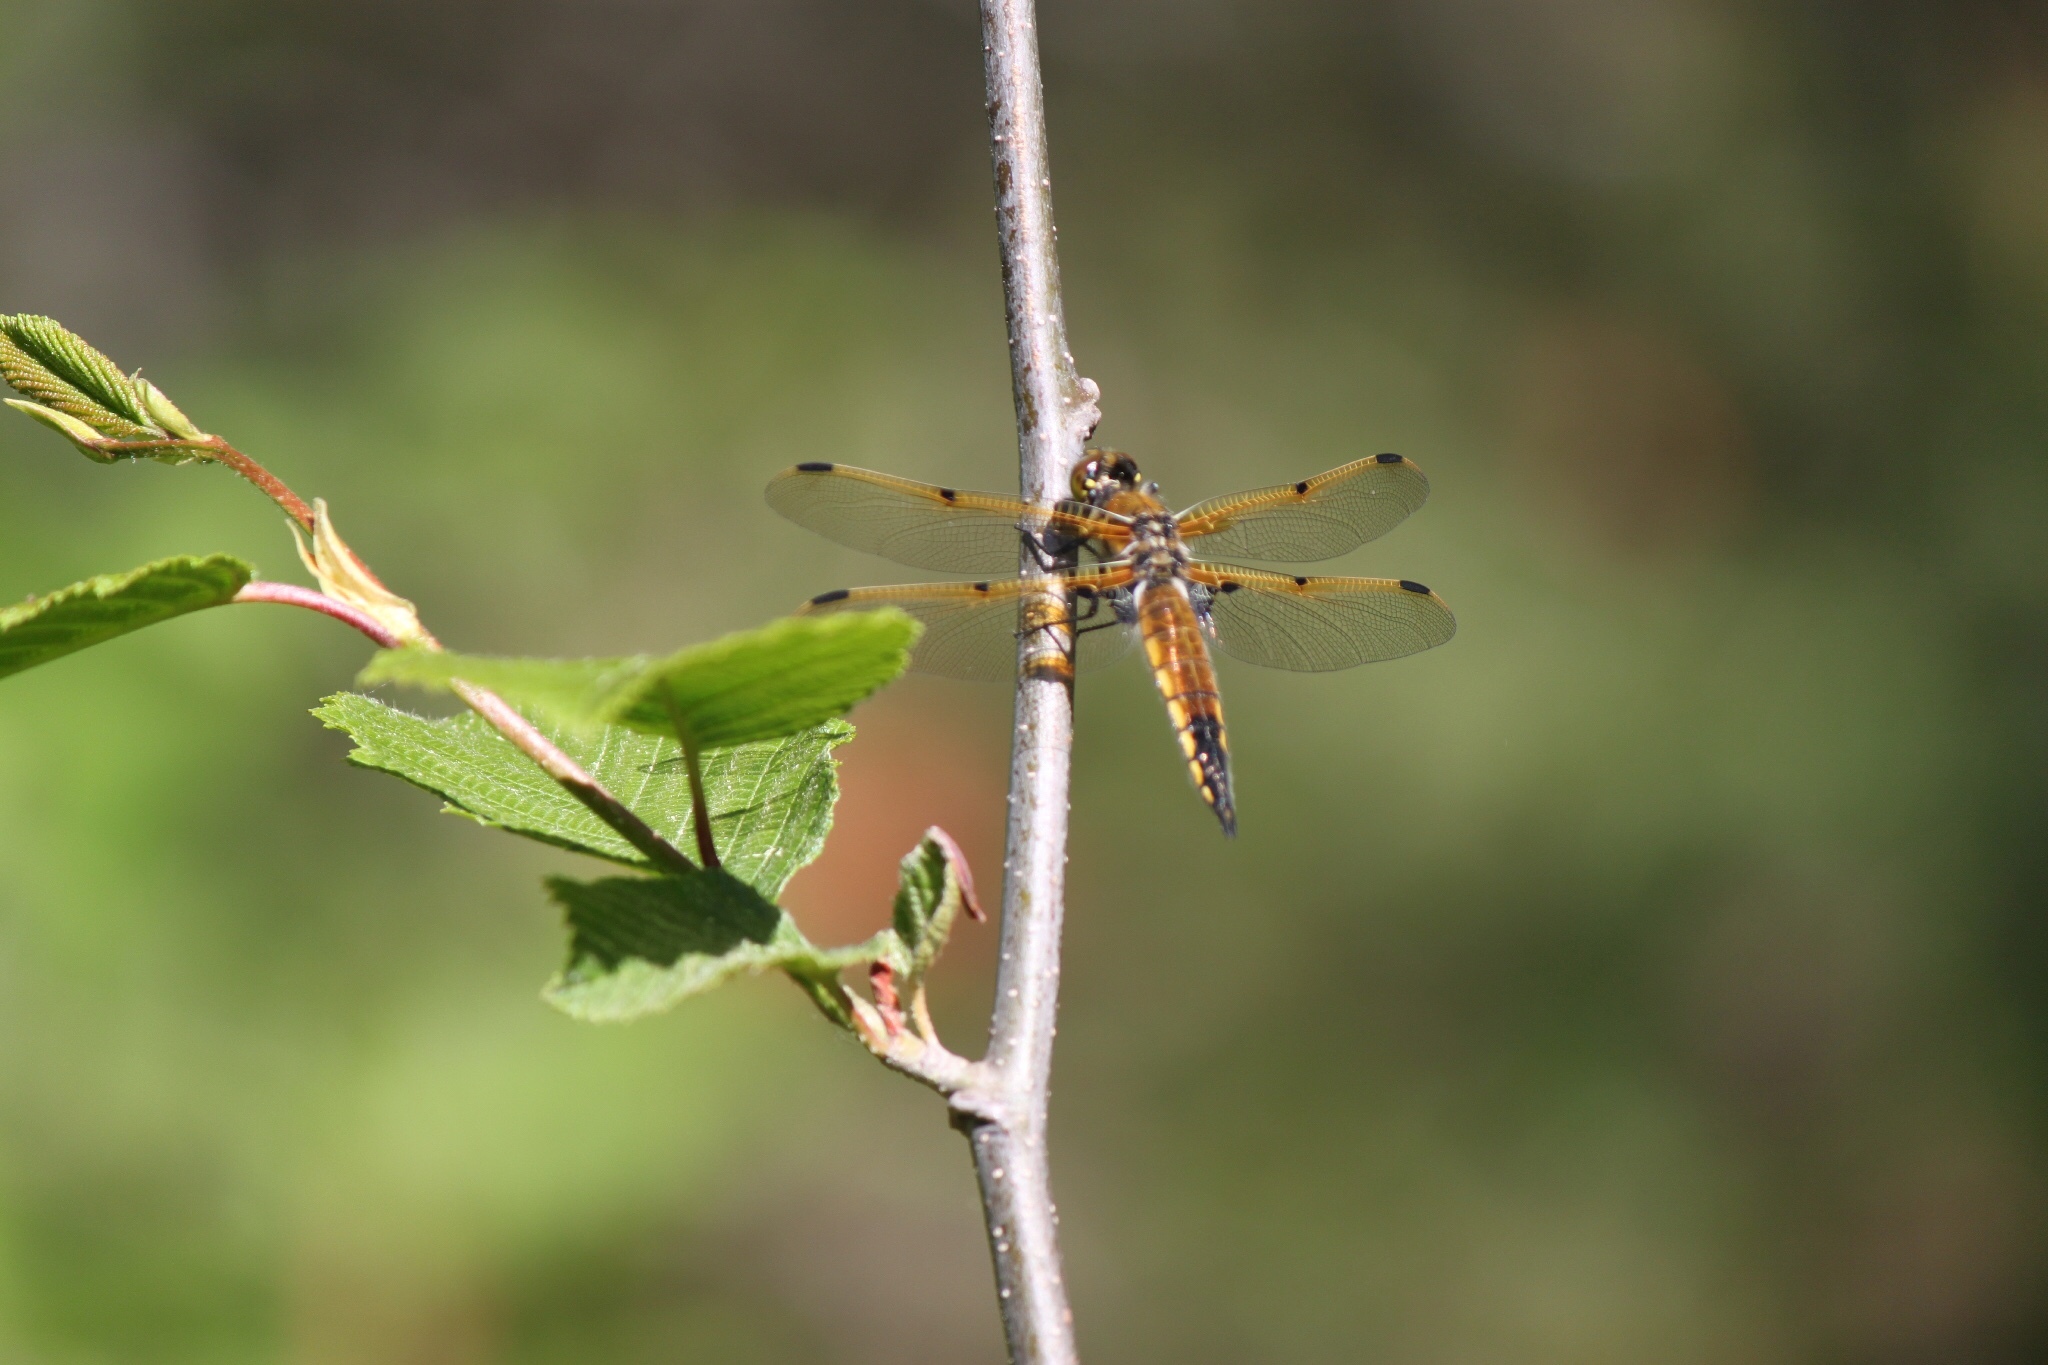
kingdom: Animalia
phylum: Arthropoda
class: Insecta
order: Odonata
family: Libellulidae
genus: Libellula
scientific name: Libellula quadrimaculata
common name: Four-spotted chaser
